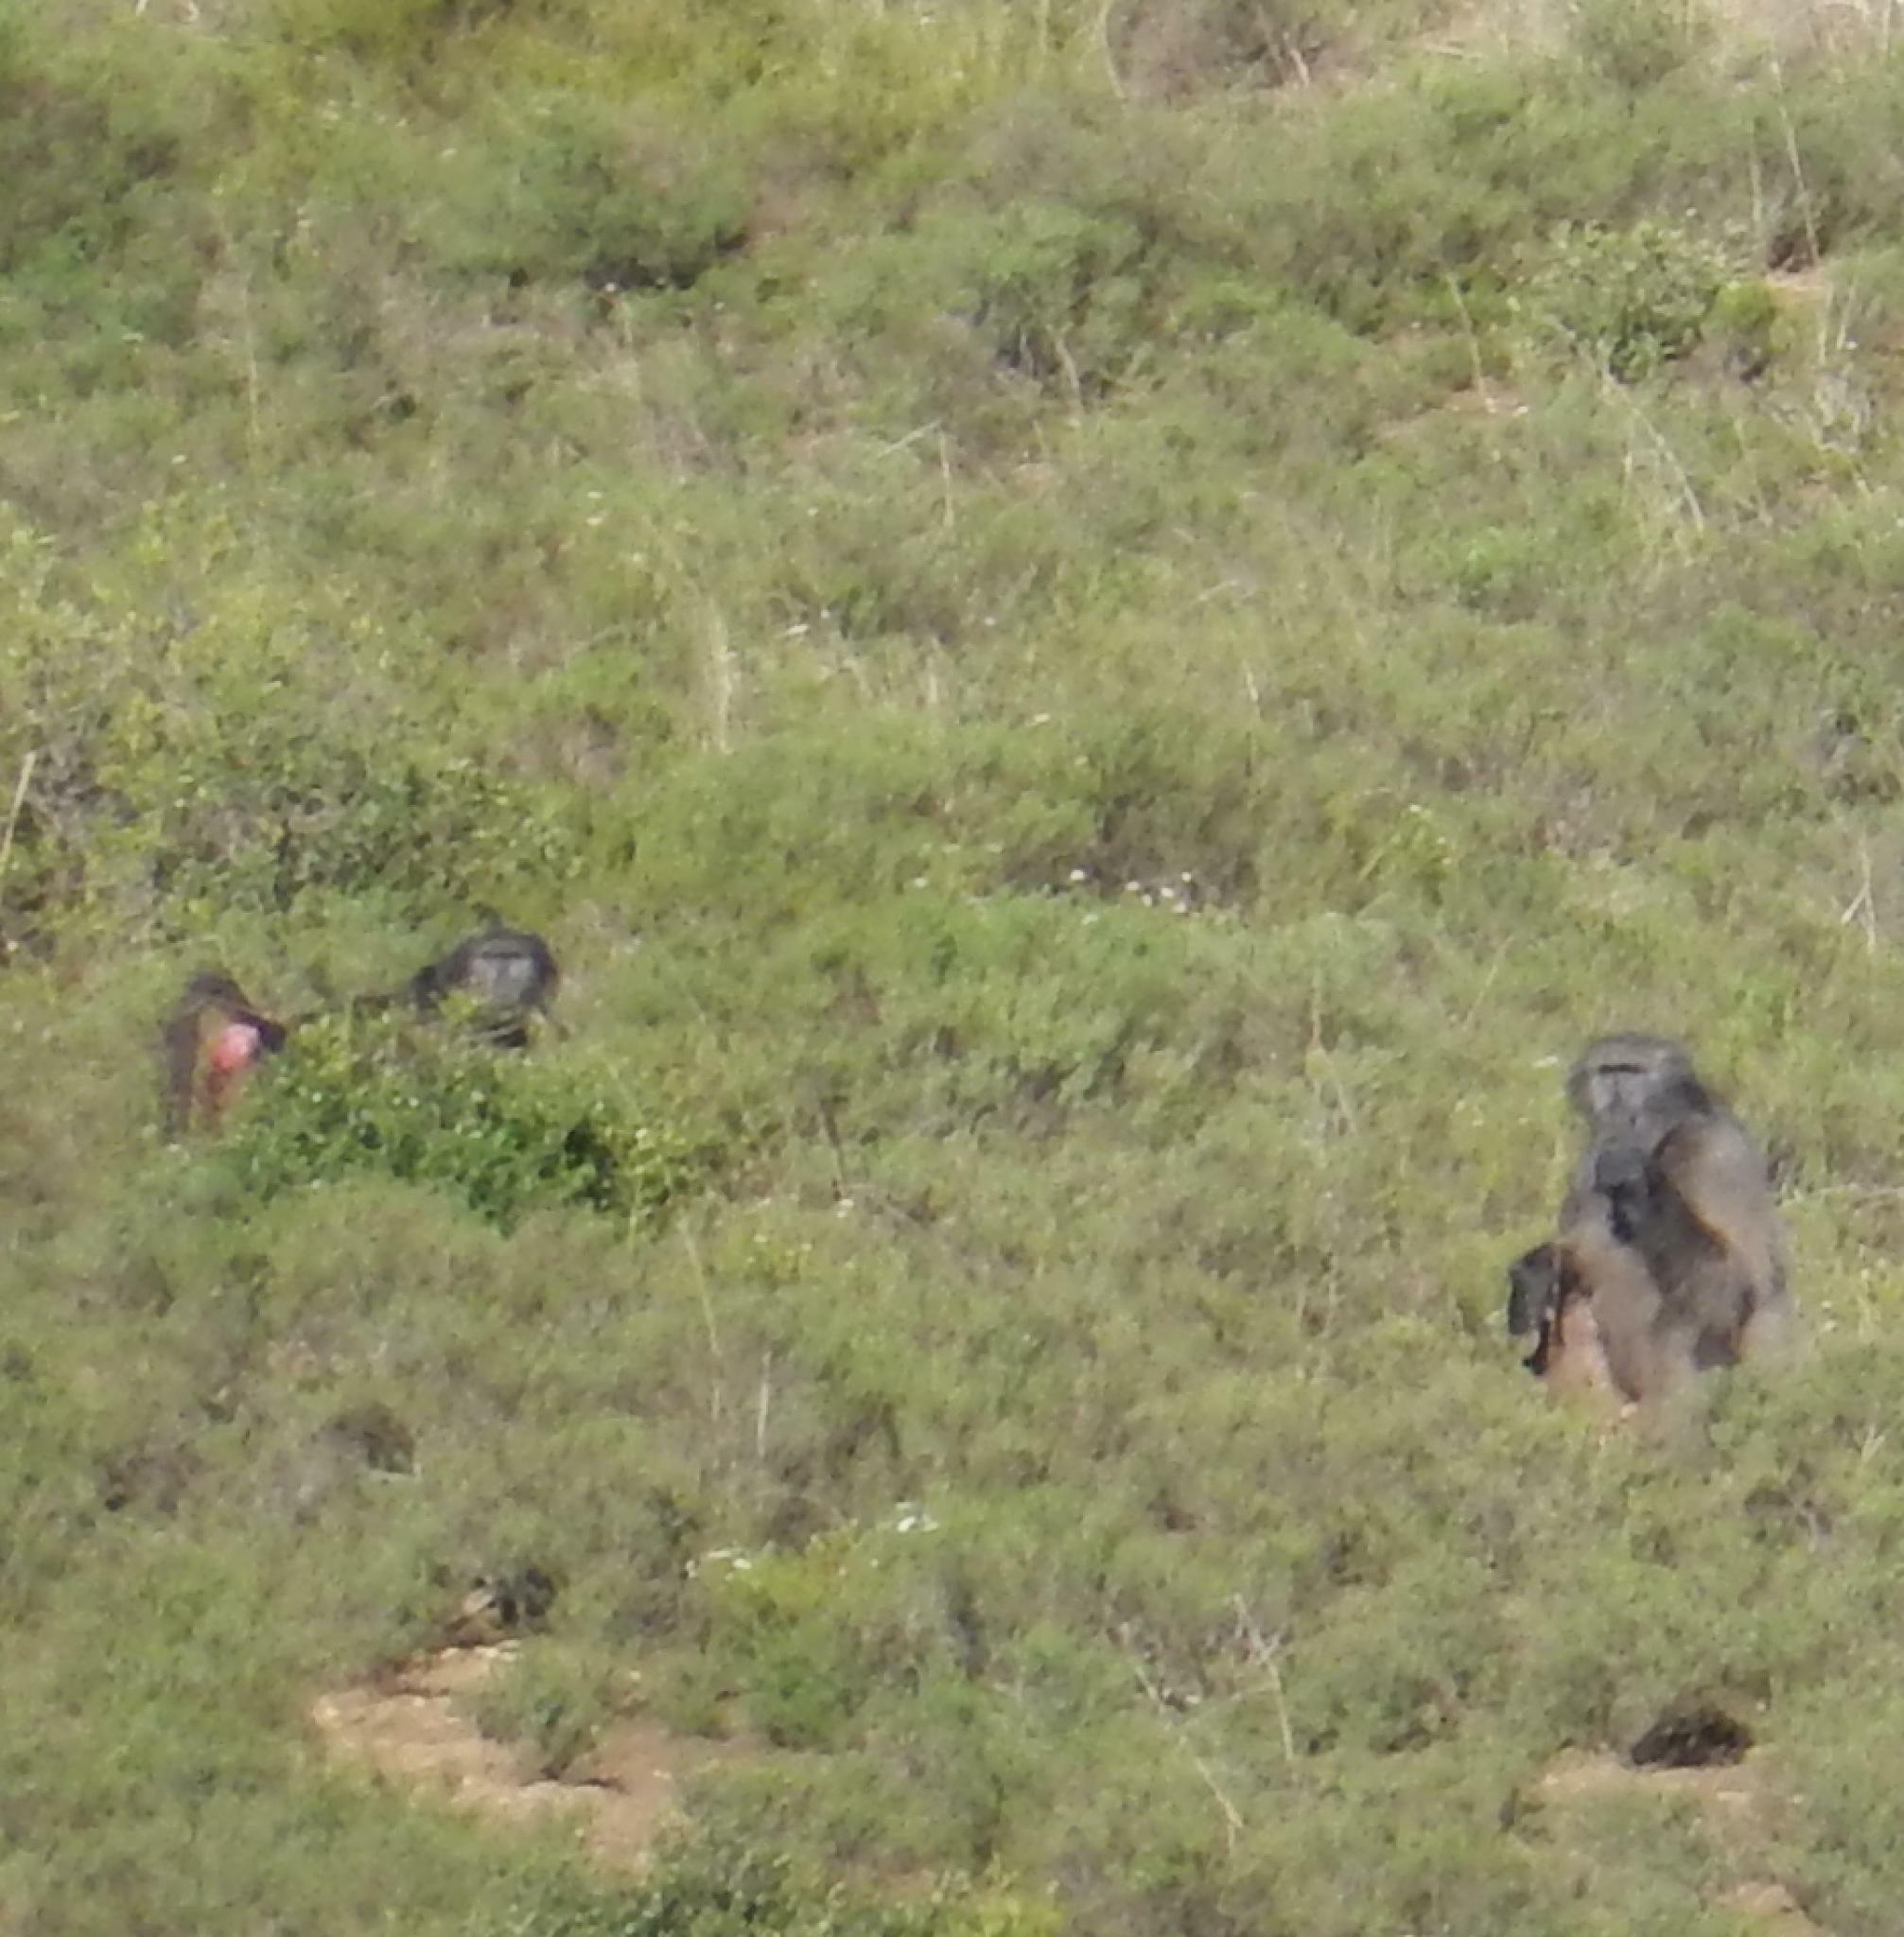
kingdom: Animalia
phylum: Chordata
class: Mammalia
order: Primates
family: Cercopithecidae
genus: Papio
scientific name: Papio ursinus
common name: Chacma baboon
